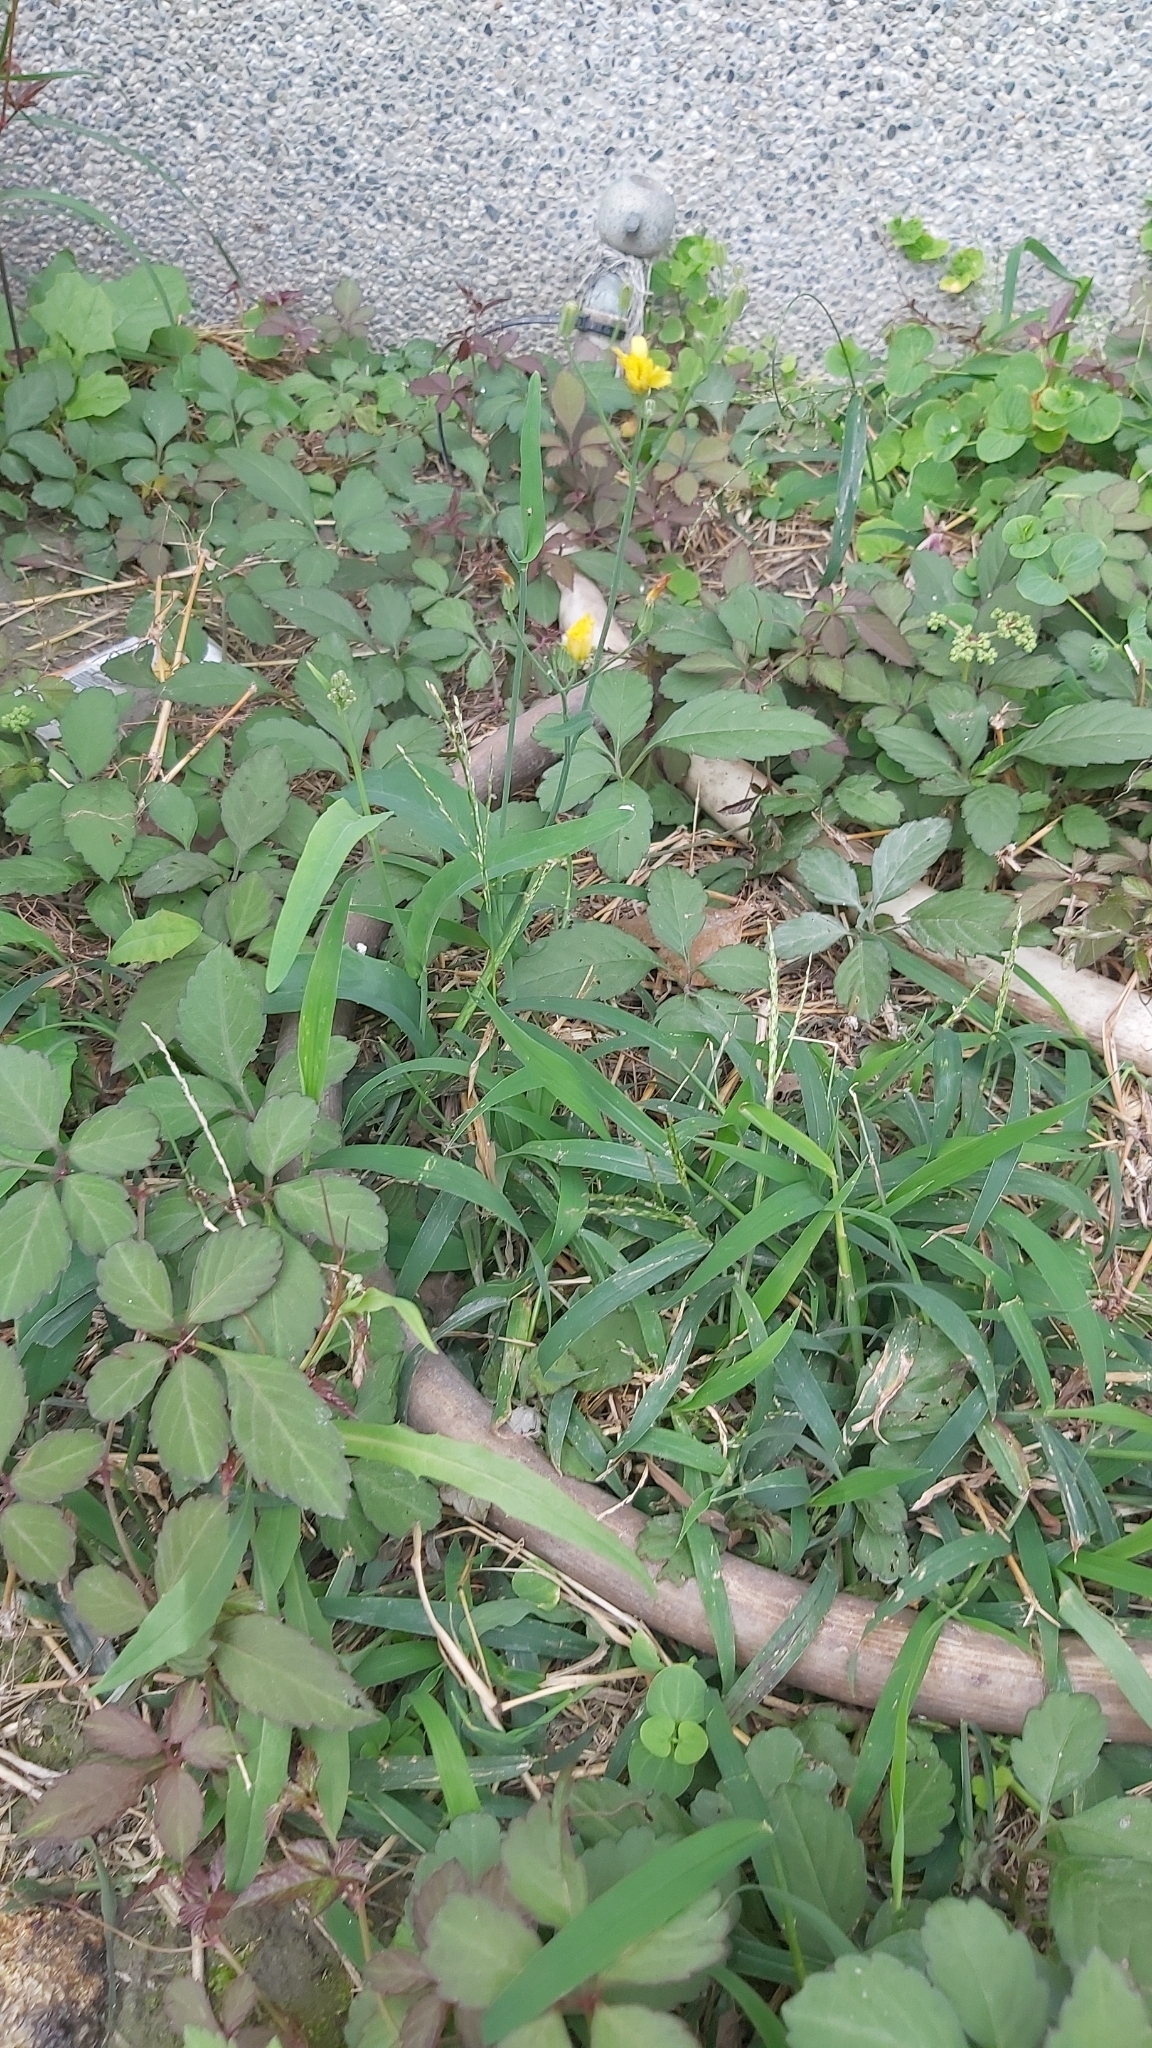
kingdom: Plantae
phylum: Tracheophyta
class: Magnoliopsida
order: Vitales
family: Vitaceae
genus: Causonis
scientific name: Causonis japonica
